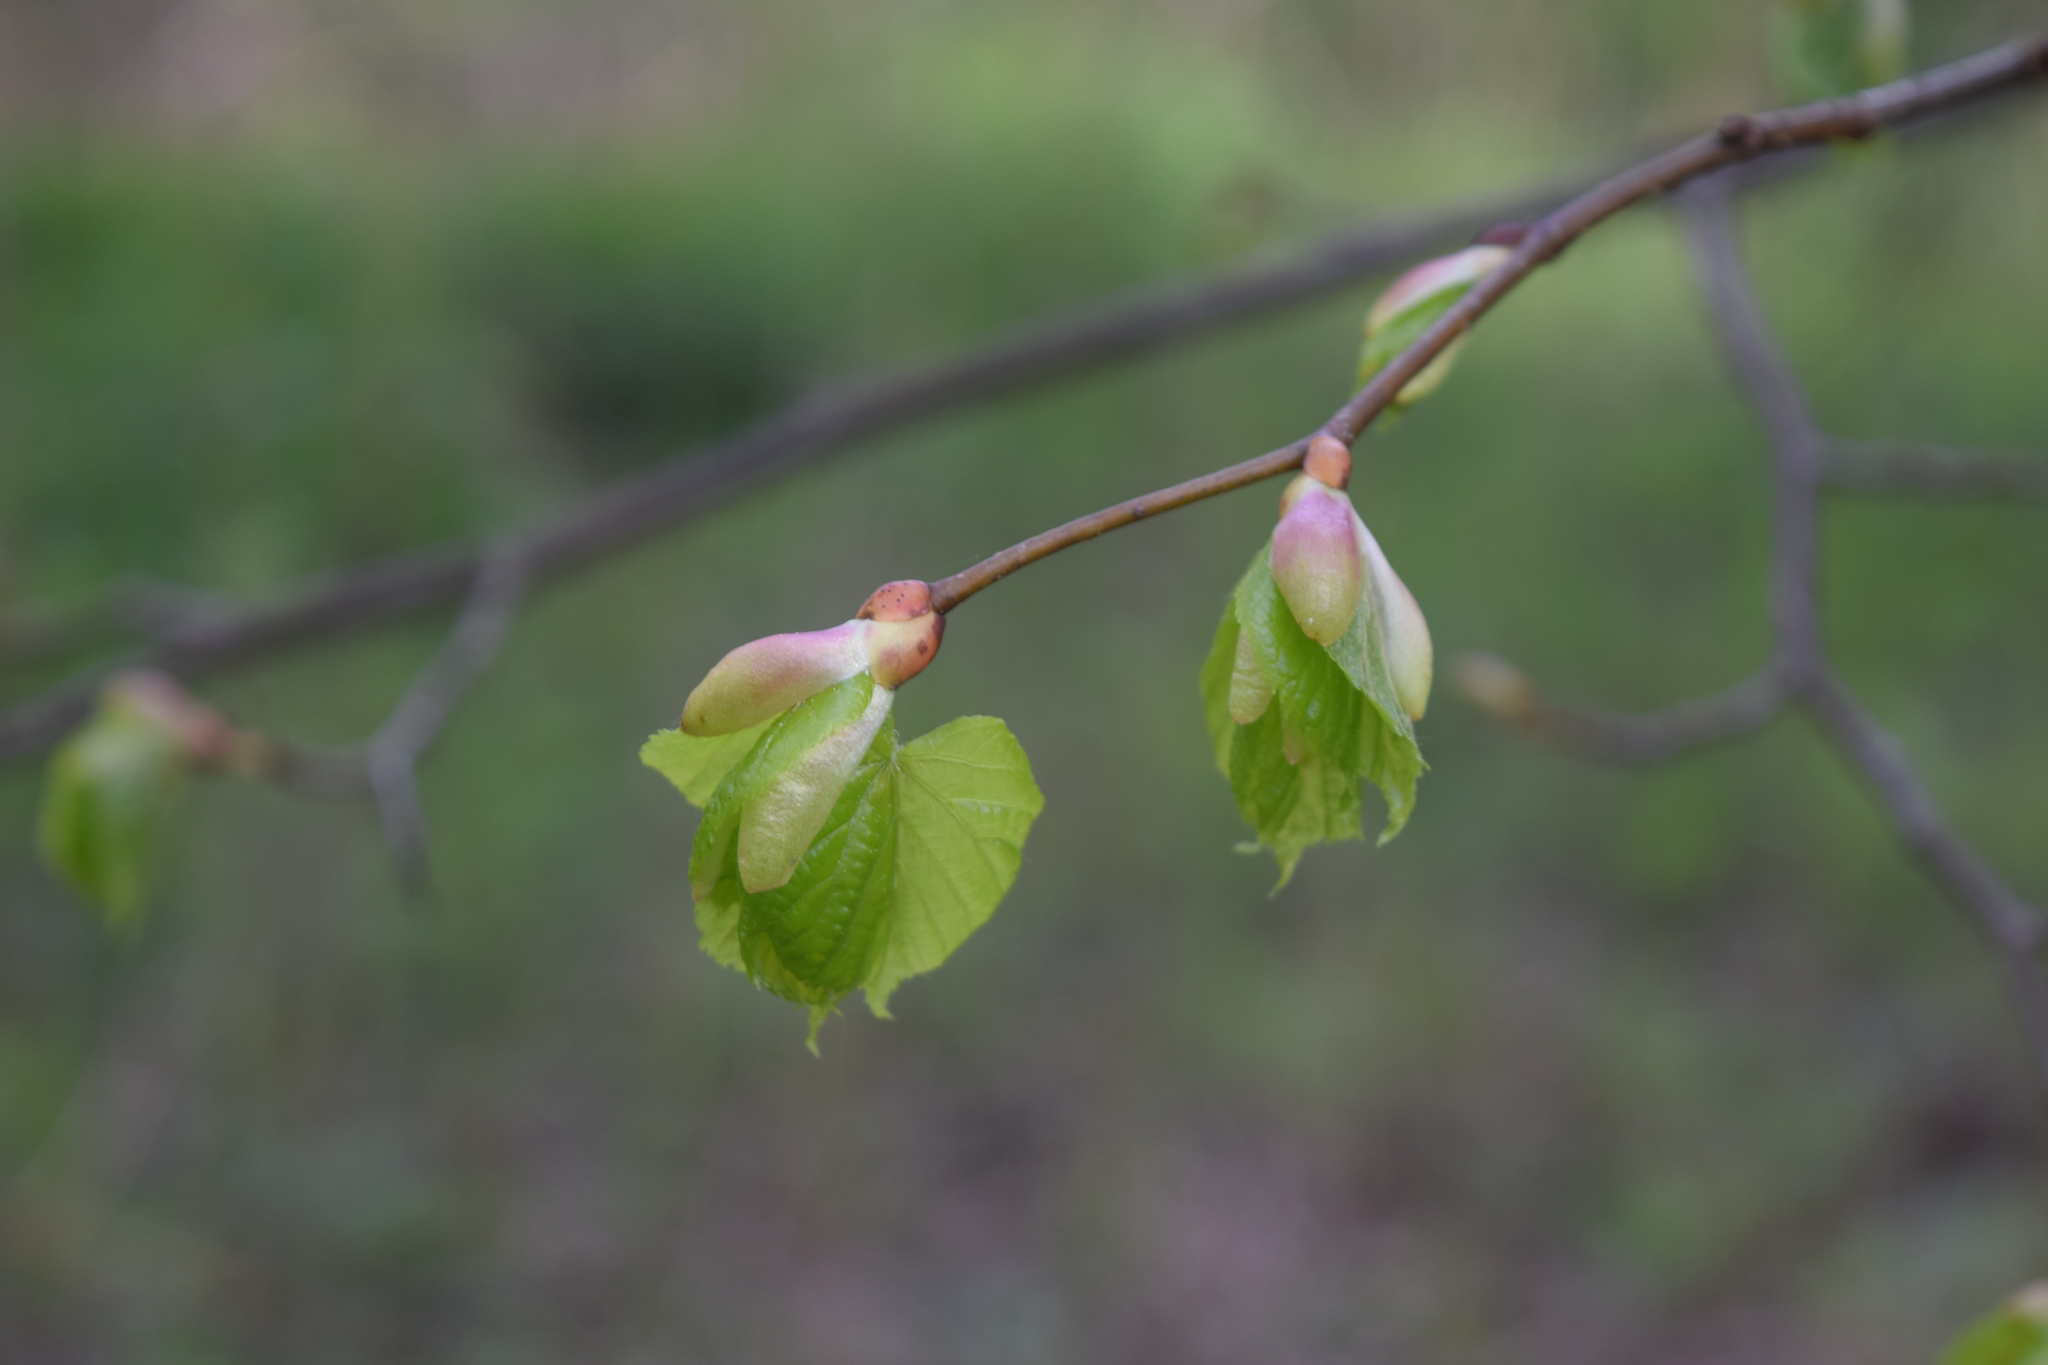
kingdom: Plantae
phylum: Tracheophyta
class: Magnoliopsida
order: Malvales
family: Malvaceae
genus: Tilia
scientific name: Tilia cordata
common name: Small-leaved lime
